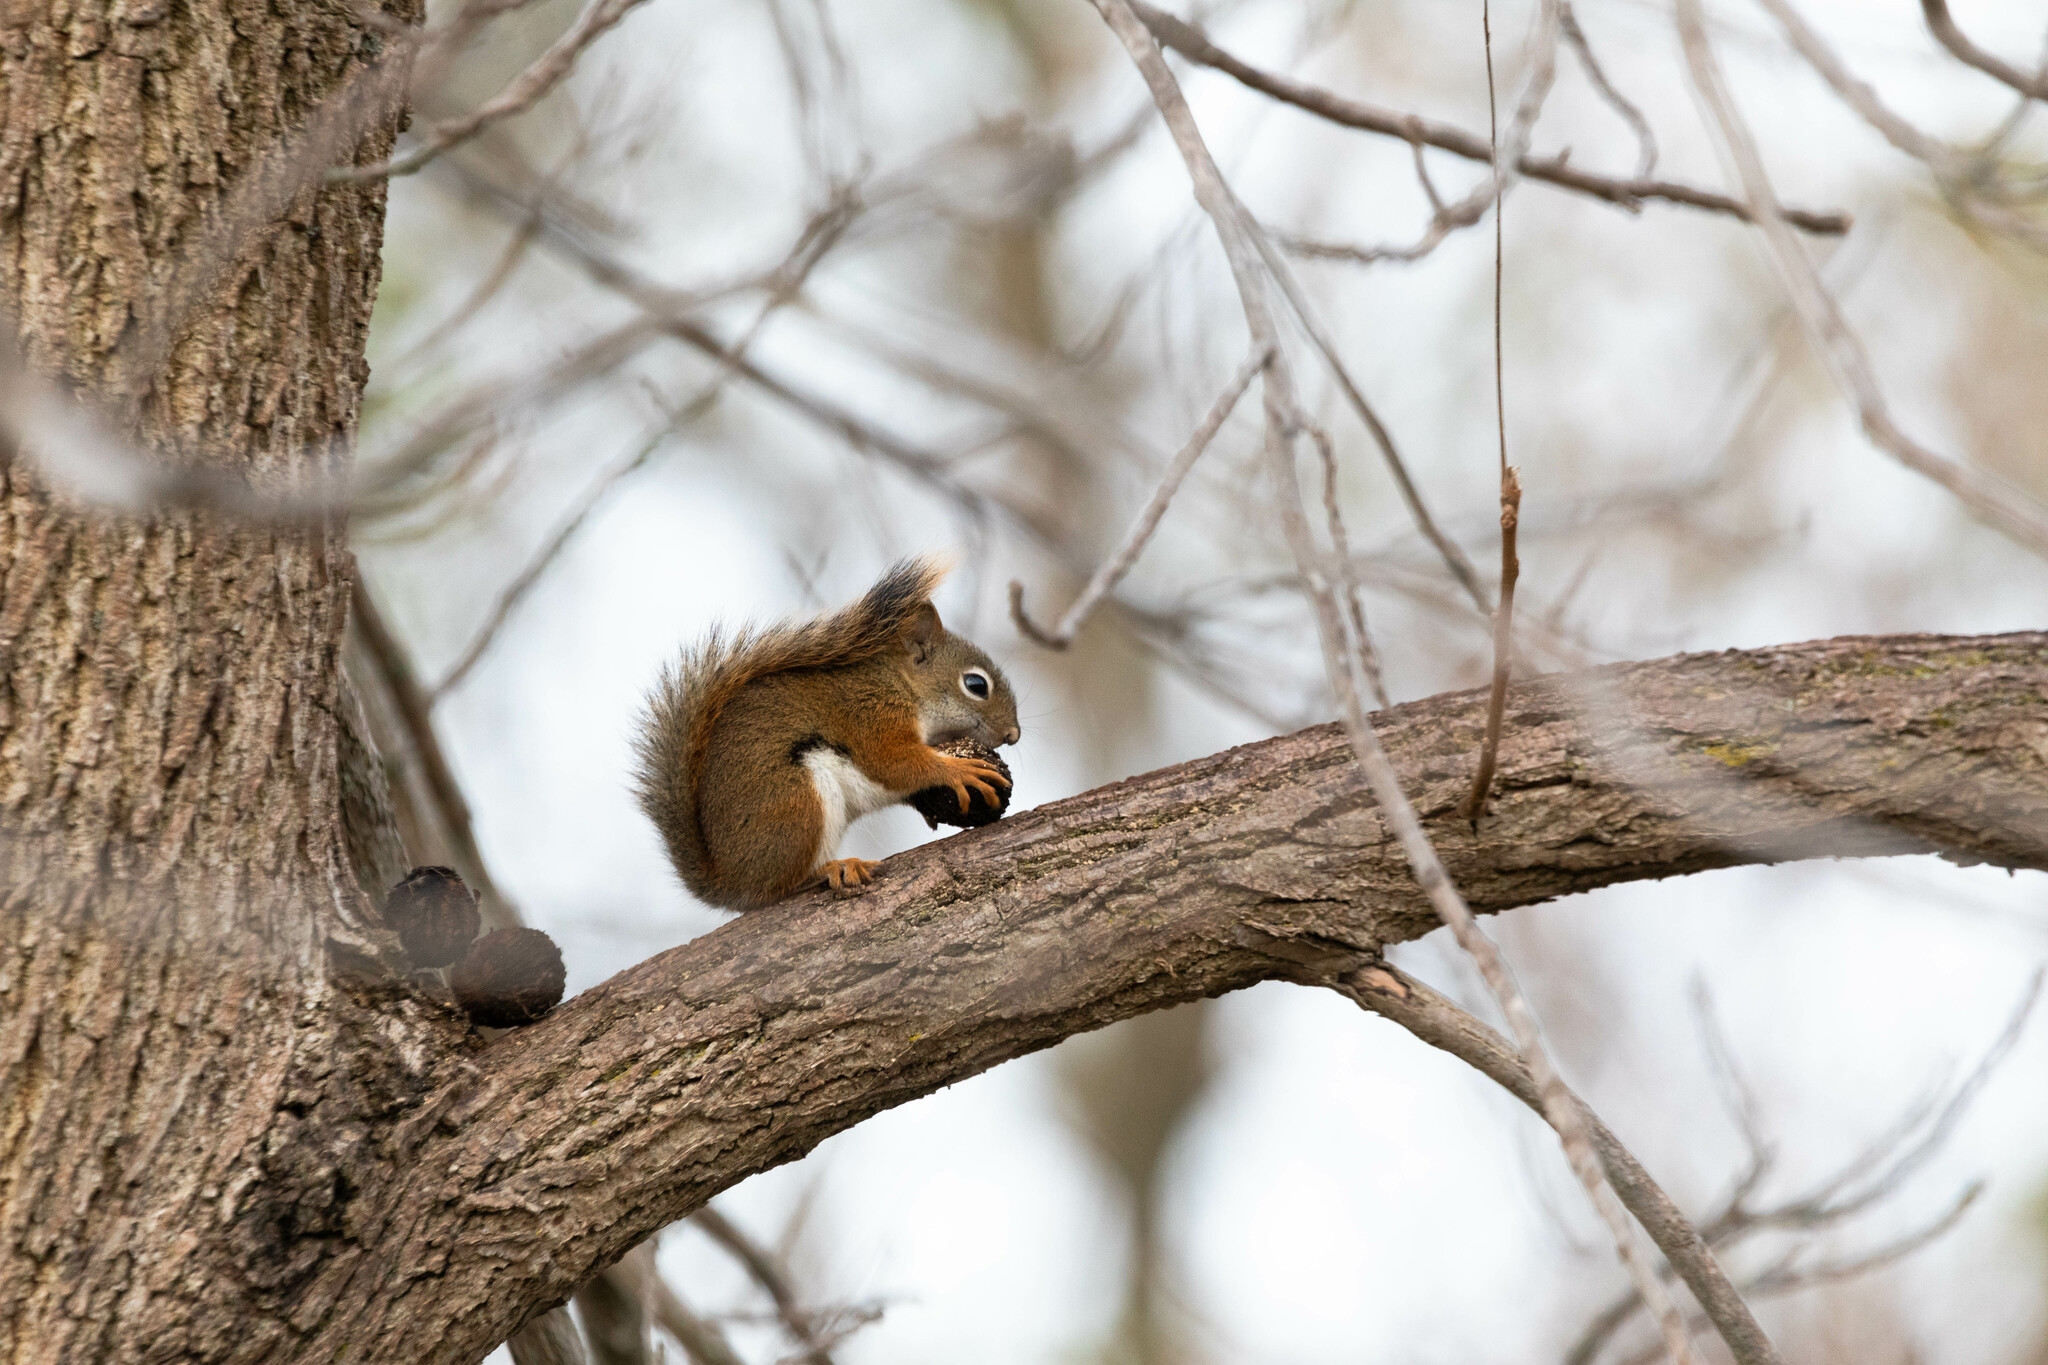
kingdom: Animalia
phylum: Chordata
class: Mammalia
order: Rodentia
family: Sciuridae
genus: Tamiasciurus
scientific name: Tamiasciurus hudsonicus
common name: Red squirrel
